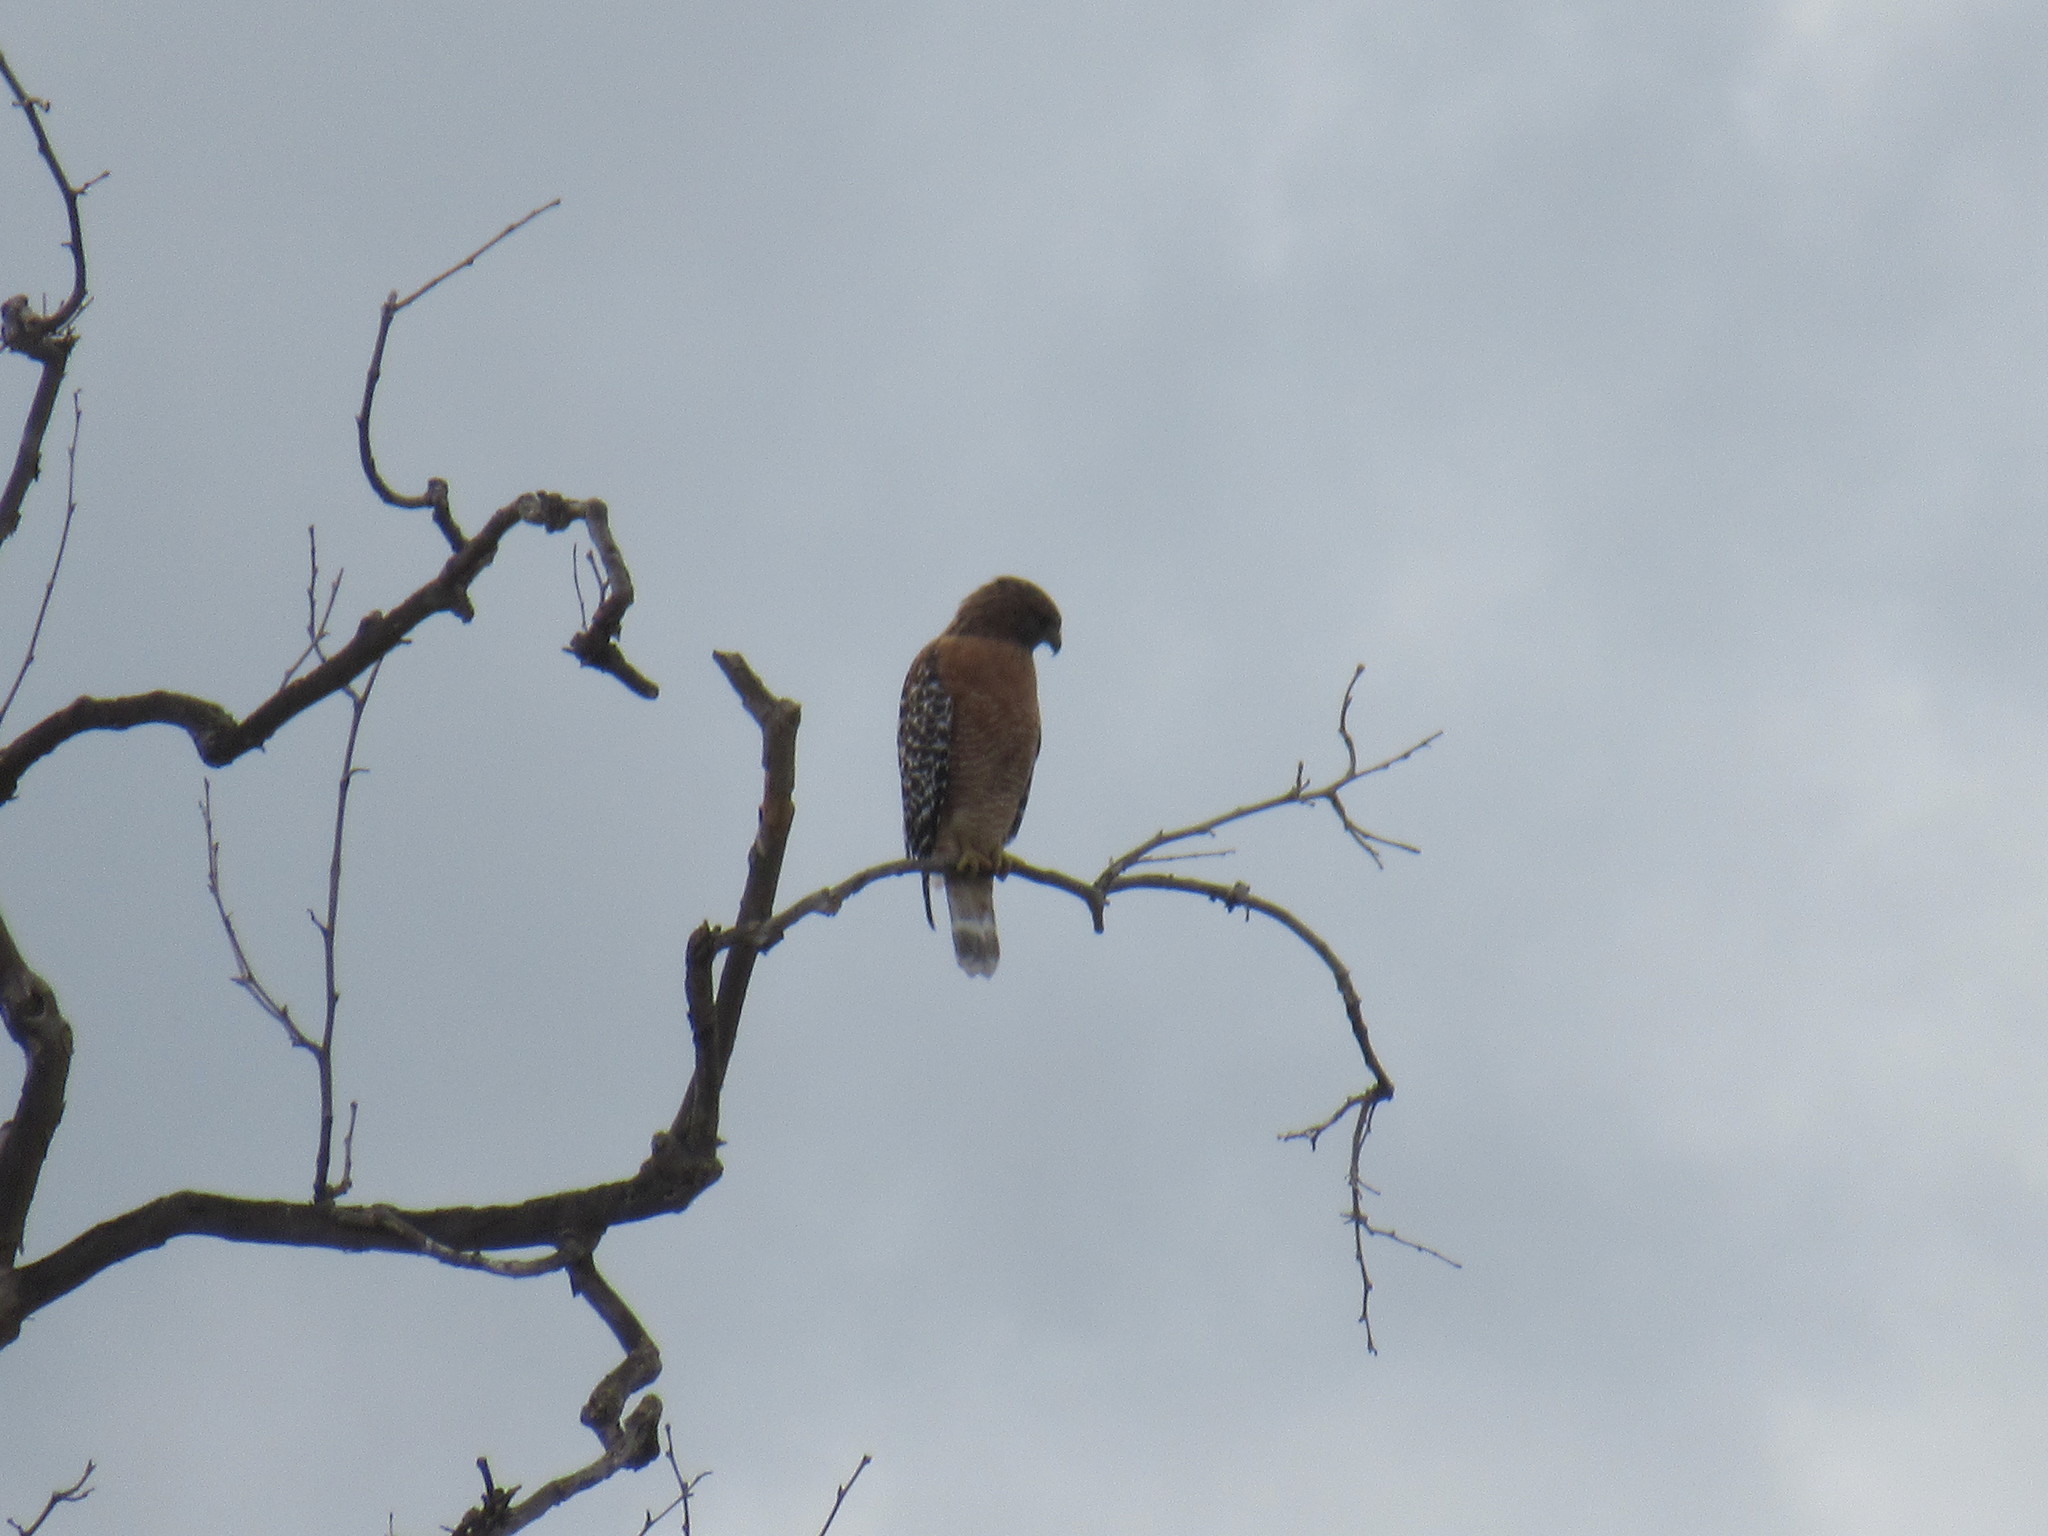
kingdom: Animalia
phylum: Chordata
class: Aves
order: Accipitriformes
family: Accipitridae
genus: Buteo
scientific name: Buteo lineatus
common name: Red-shouldered hawk
